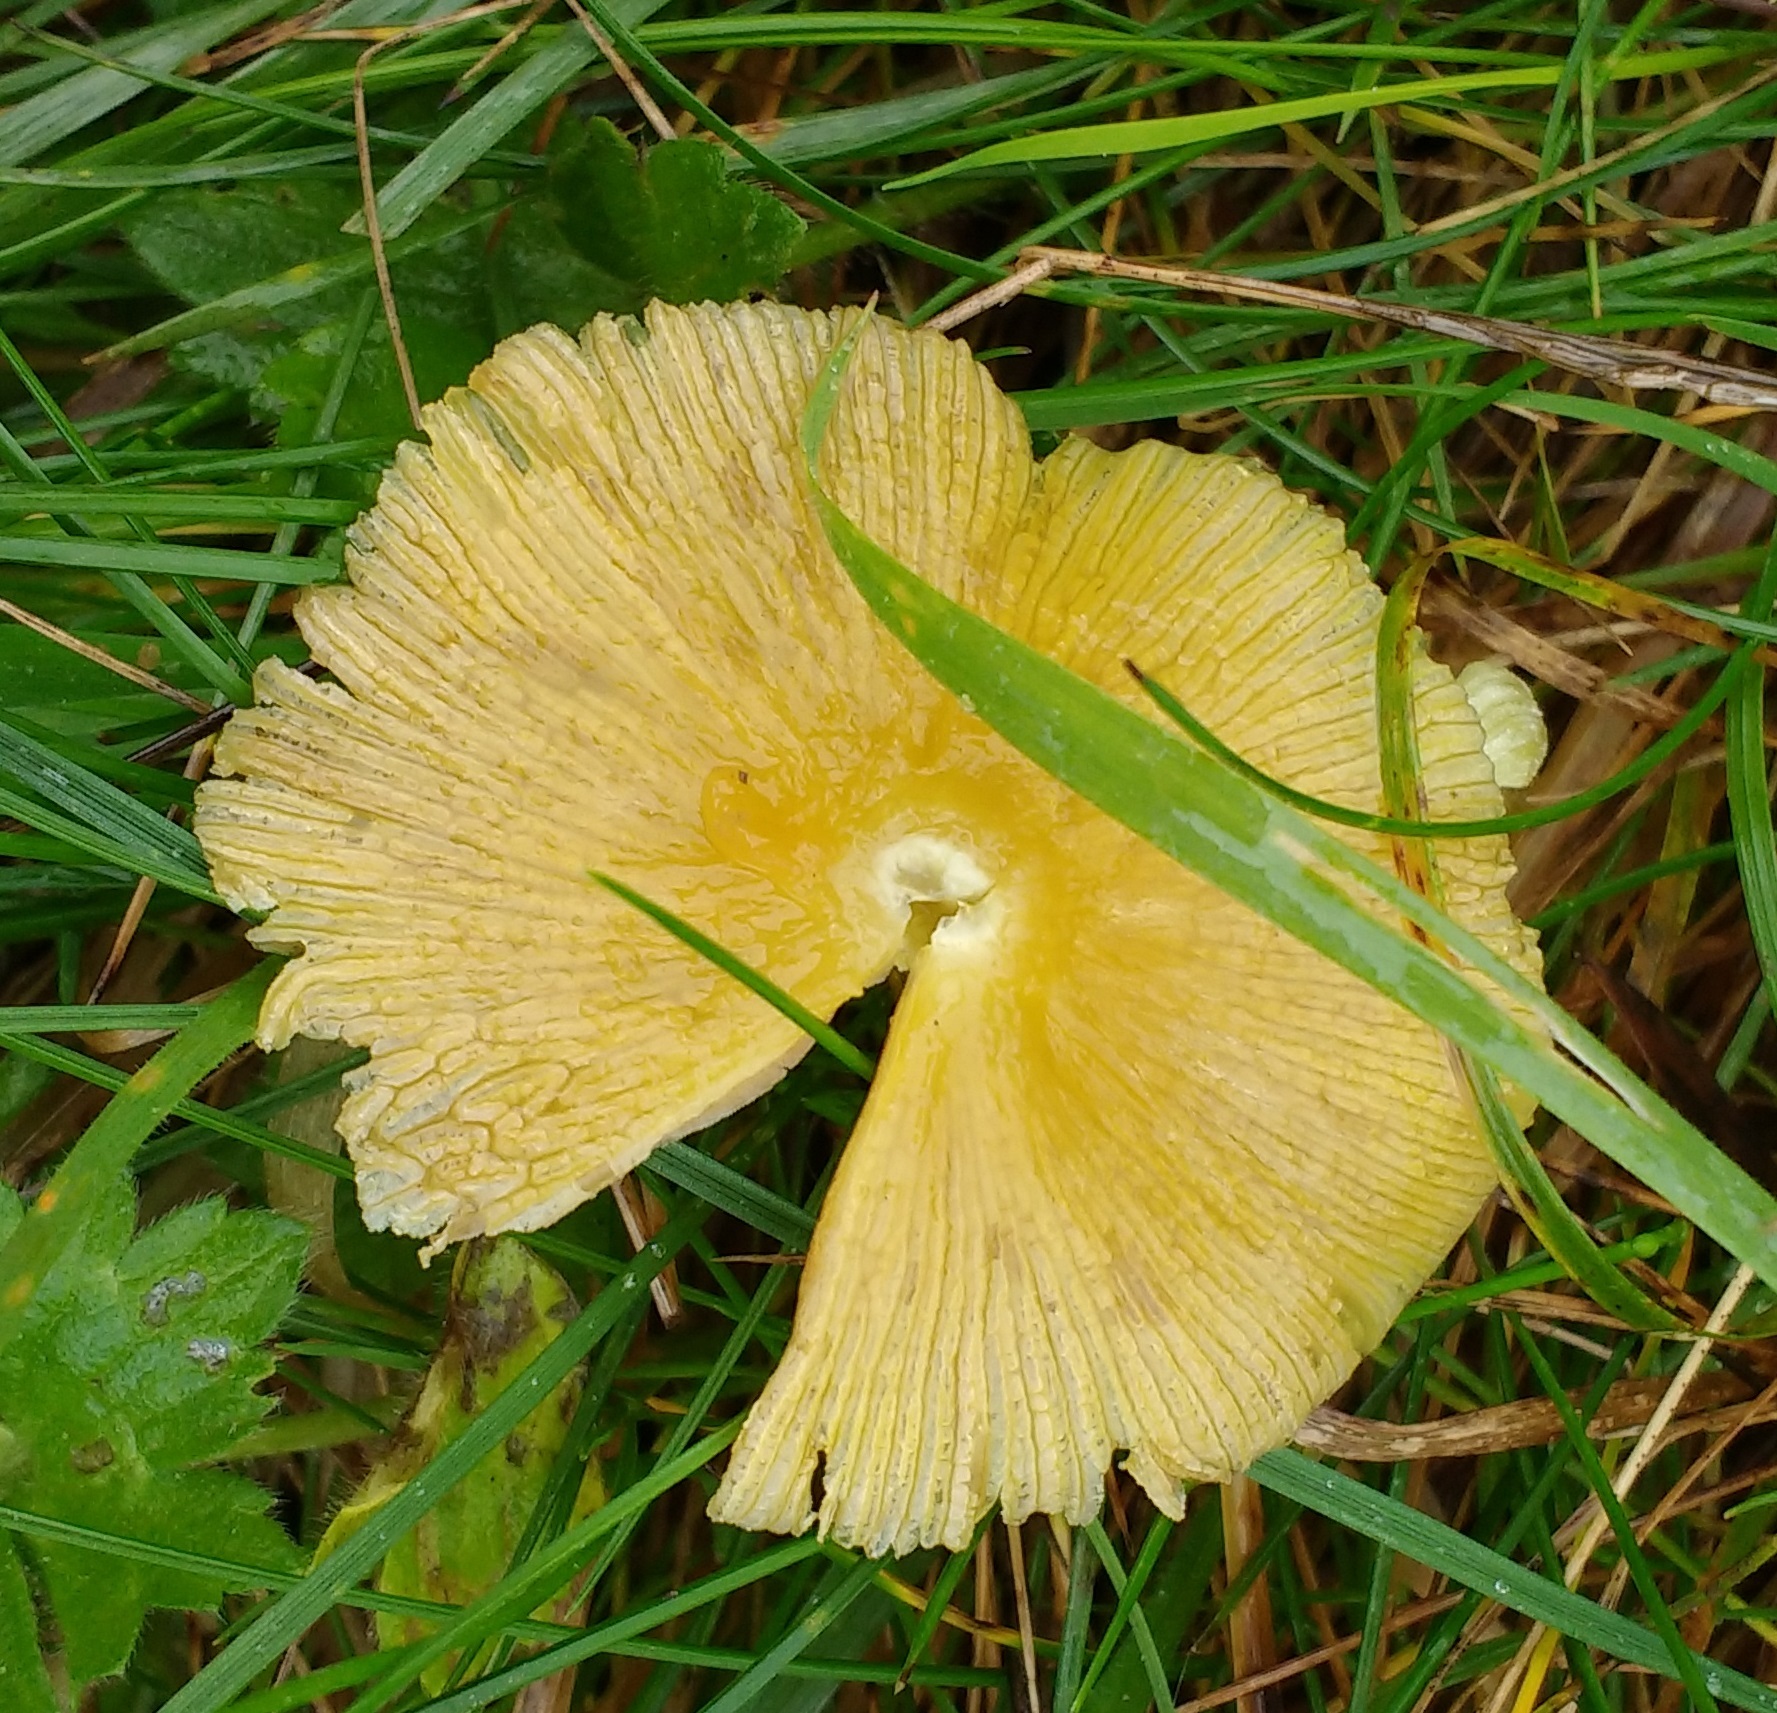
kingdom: Fungi
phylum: Basidiomycota
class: Agaricomycetes
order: Agaricales
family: Bolbitiaceae
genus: Bolbitius
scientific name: Bolbitius titubans
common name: Yellow fieldcap
